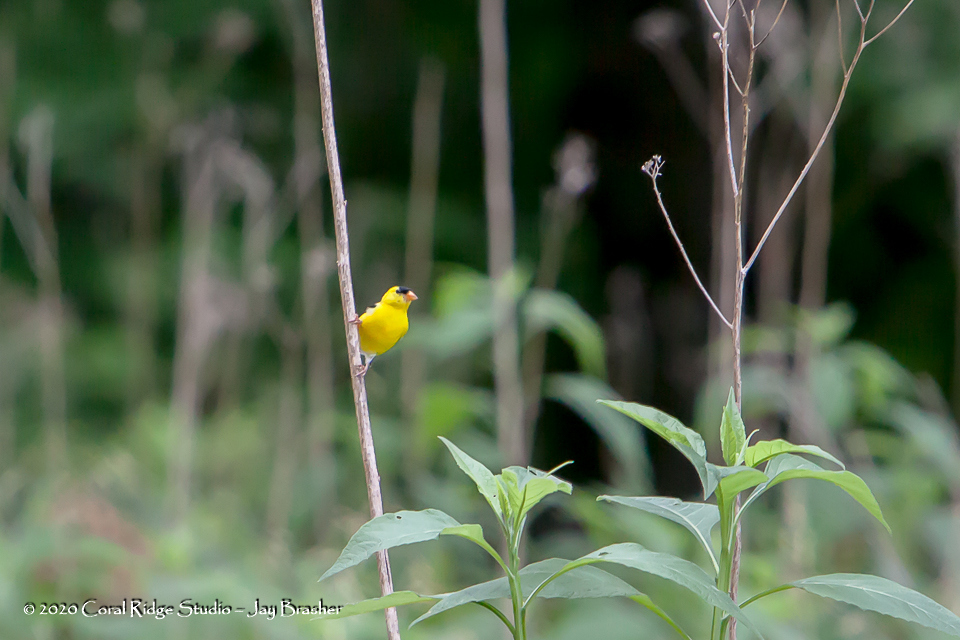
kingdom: Animalia
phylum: Chordata
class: Aves
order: Passeriformes
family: Fringillidae
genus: Spinus
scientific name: Spinus tristis
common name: American goldfinch
